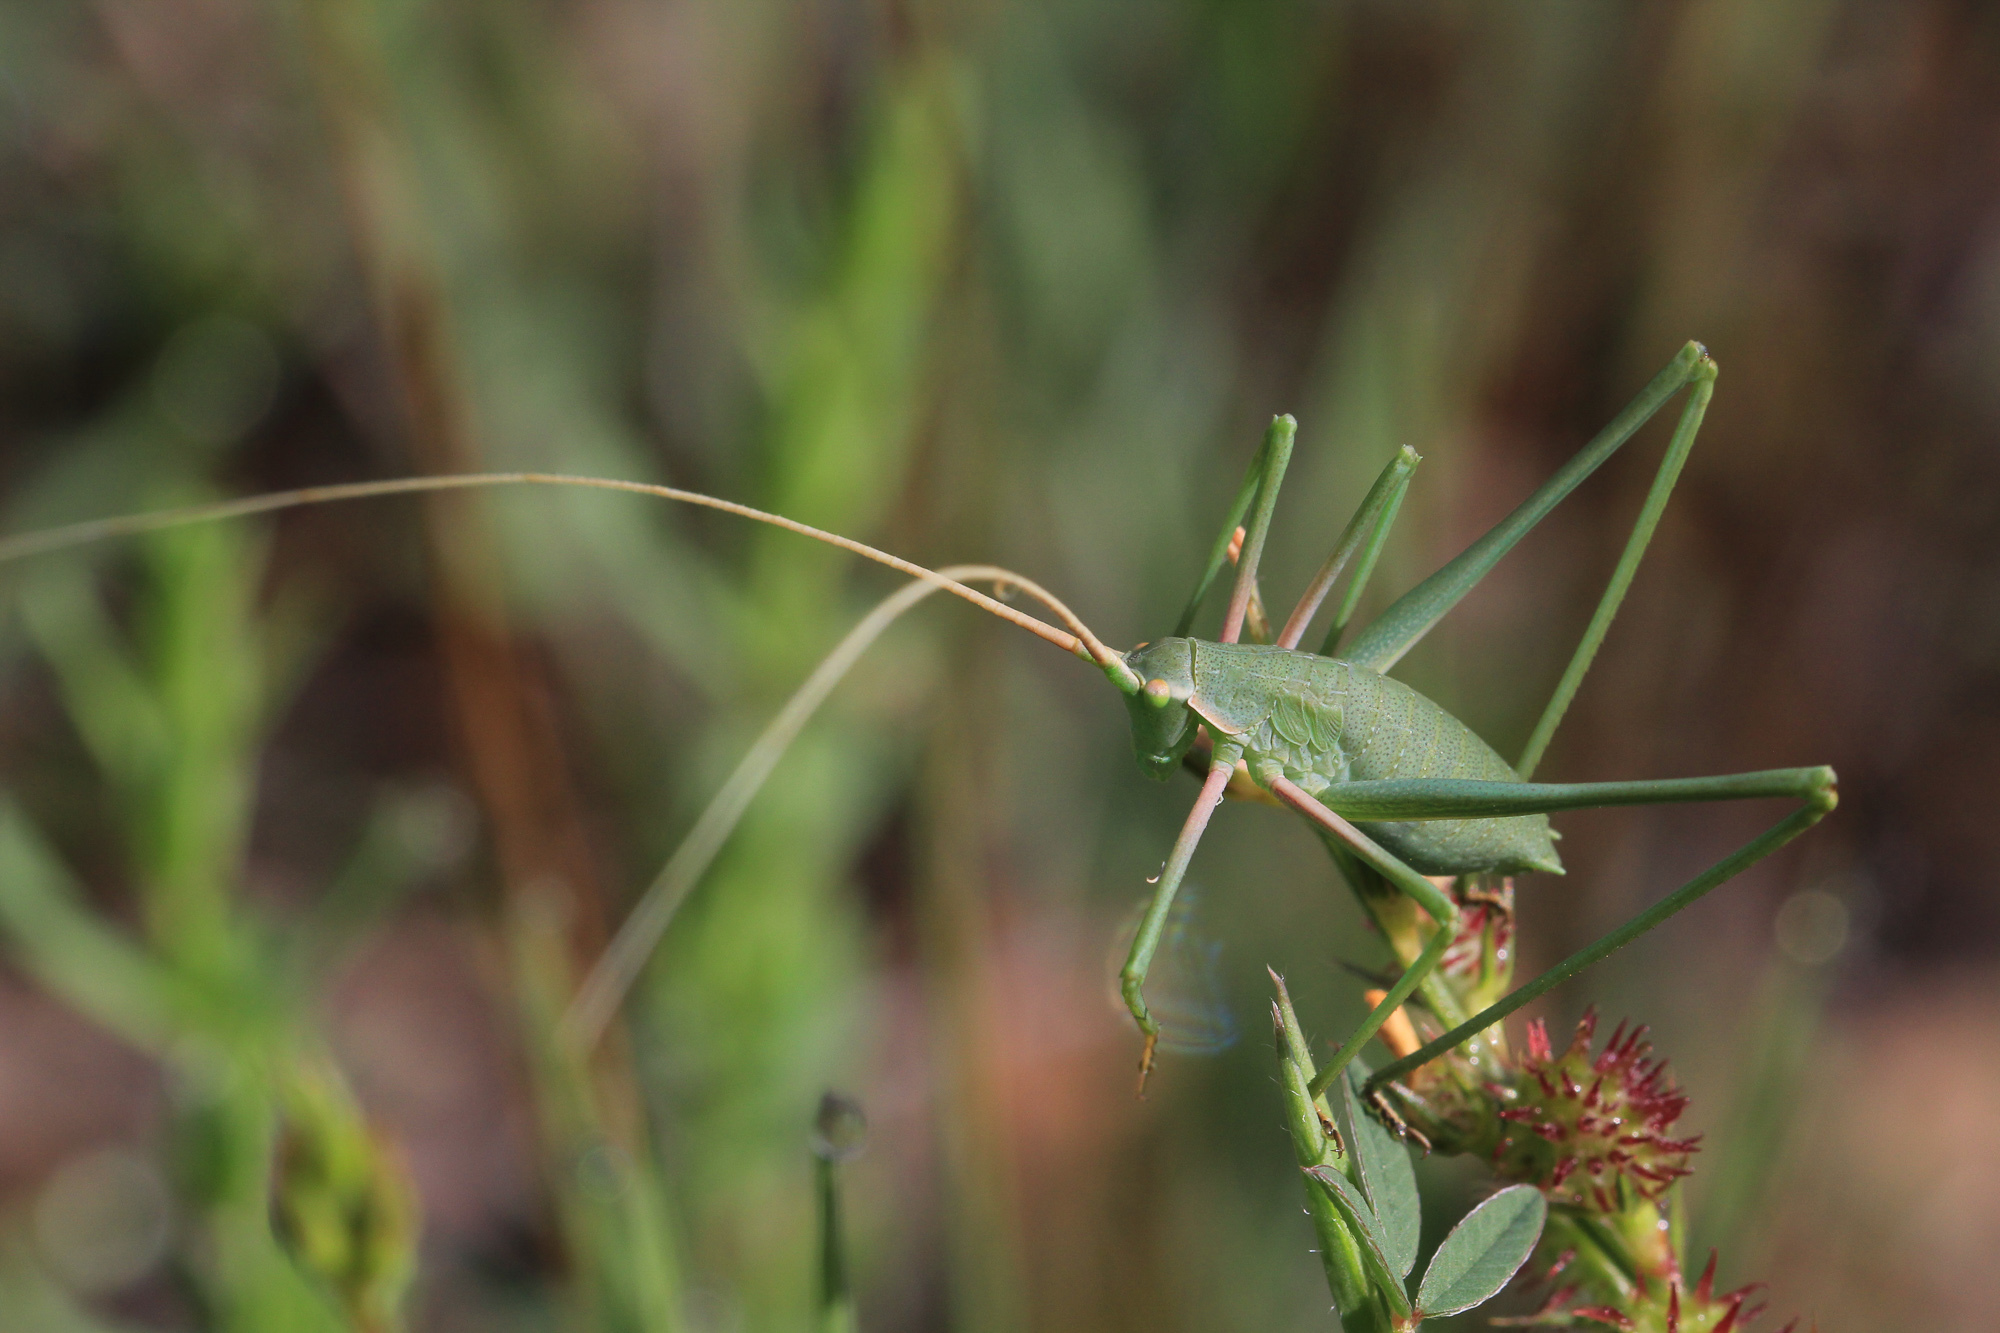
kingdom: Animalia
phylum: Arthropoda
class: Insecta
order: Orthoptera
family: Tettigoniidae
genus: Acrometopa
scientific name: Acrometopa servillea
